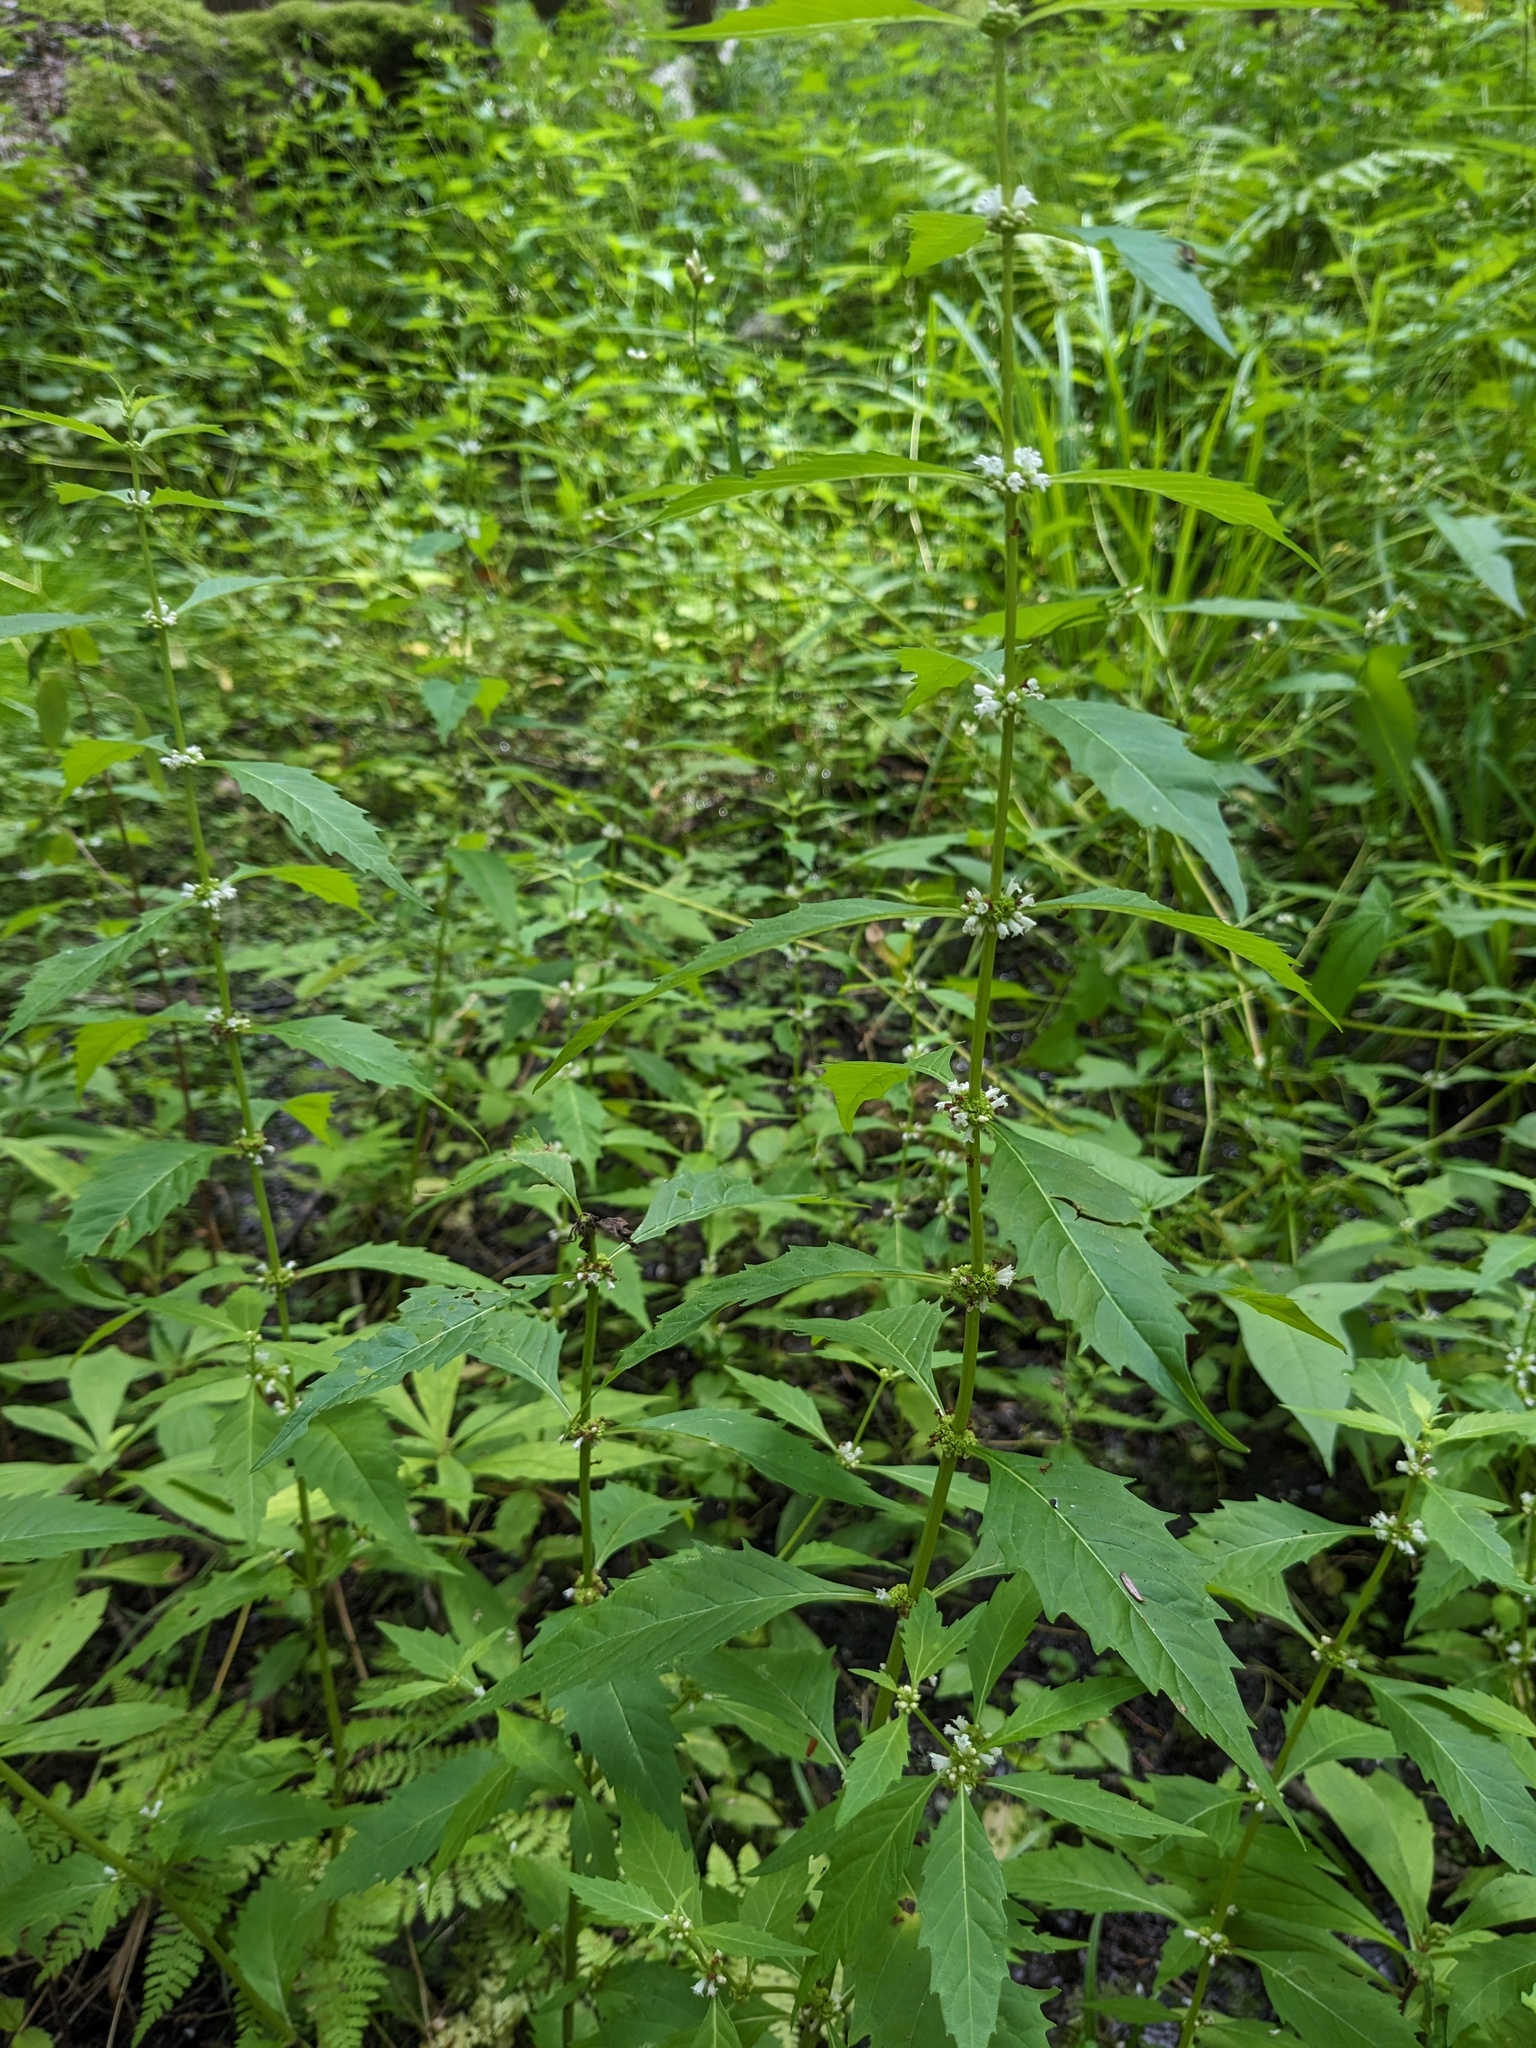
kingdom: Plantae
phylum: Tracheophyta
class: Magnoliopsida
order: Lamiales
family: Lamiaceae
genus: Lycopus
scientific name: Lycopus uniflorus
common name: Northern bugleweed
